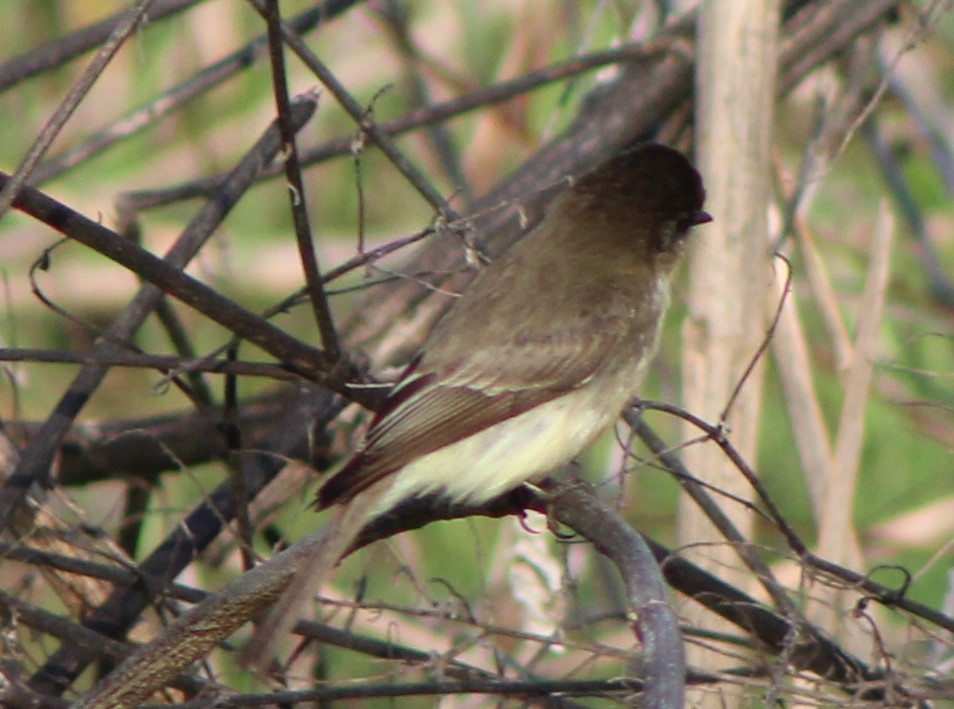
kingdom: Animalia
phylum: Chordata
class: Aves
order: Passeriformes
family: Tyrannidae
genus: Sayornis
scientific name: Sayornis phoebe
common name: Eastern phoebe
